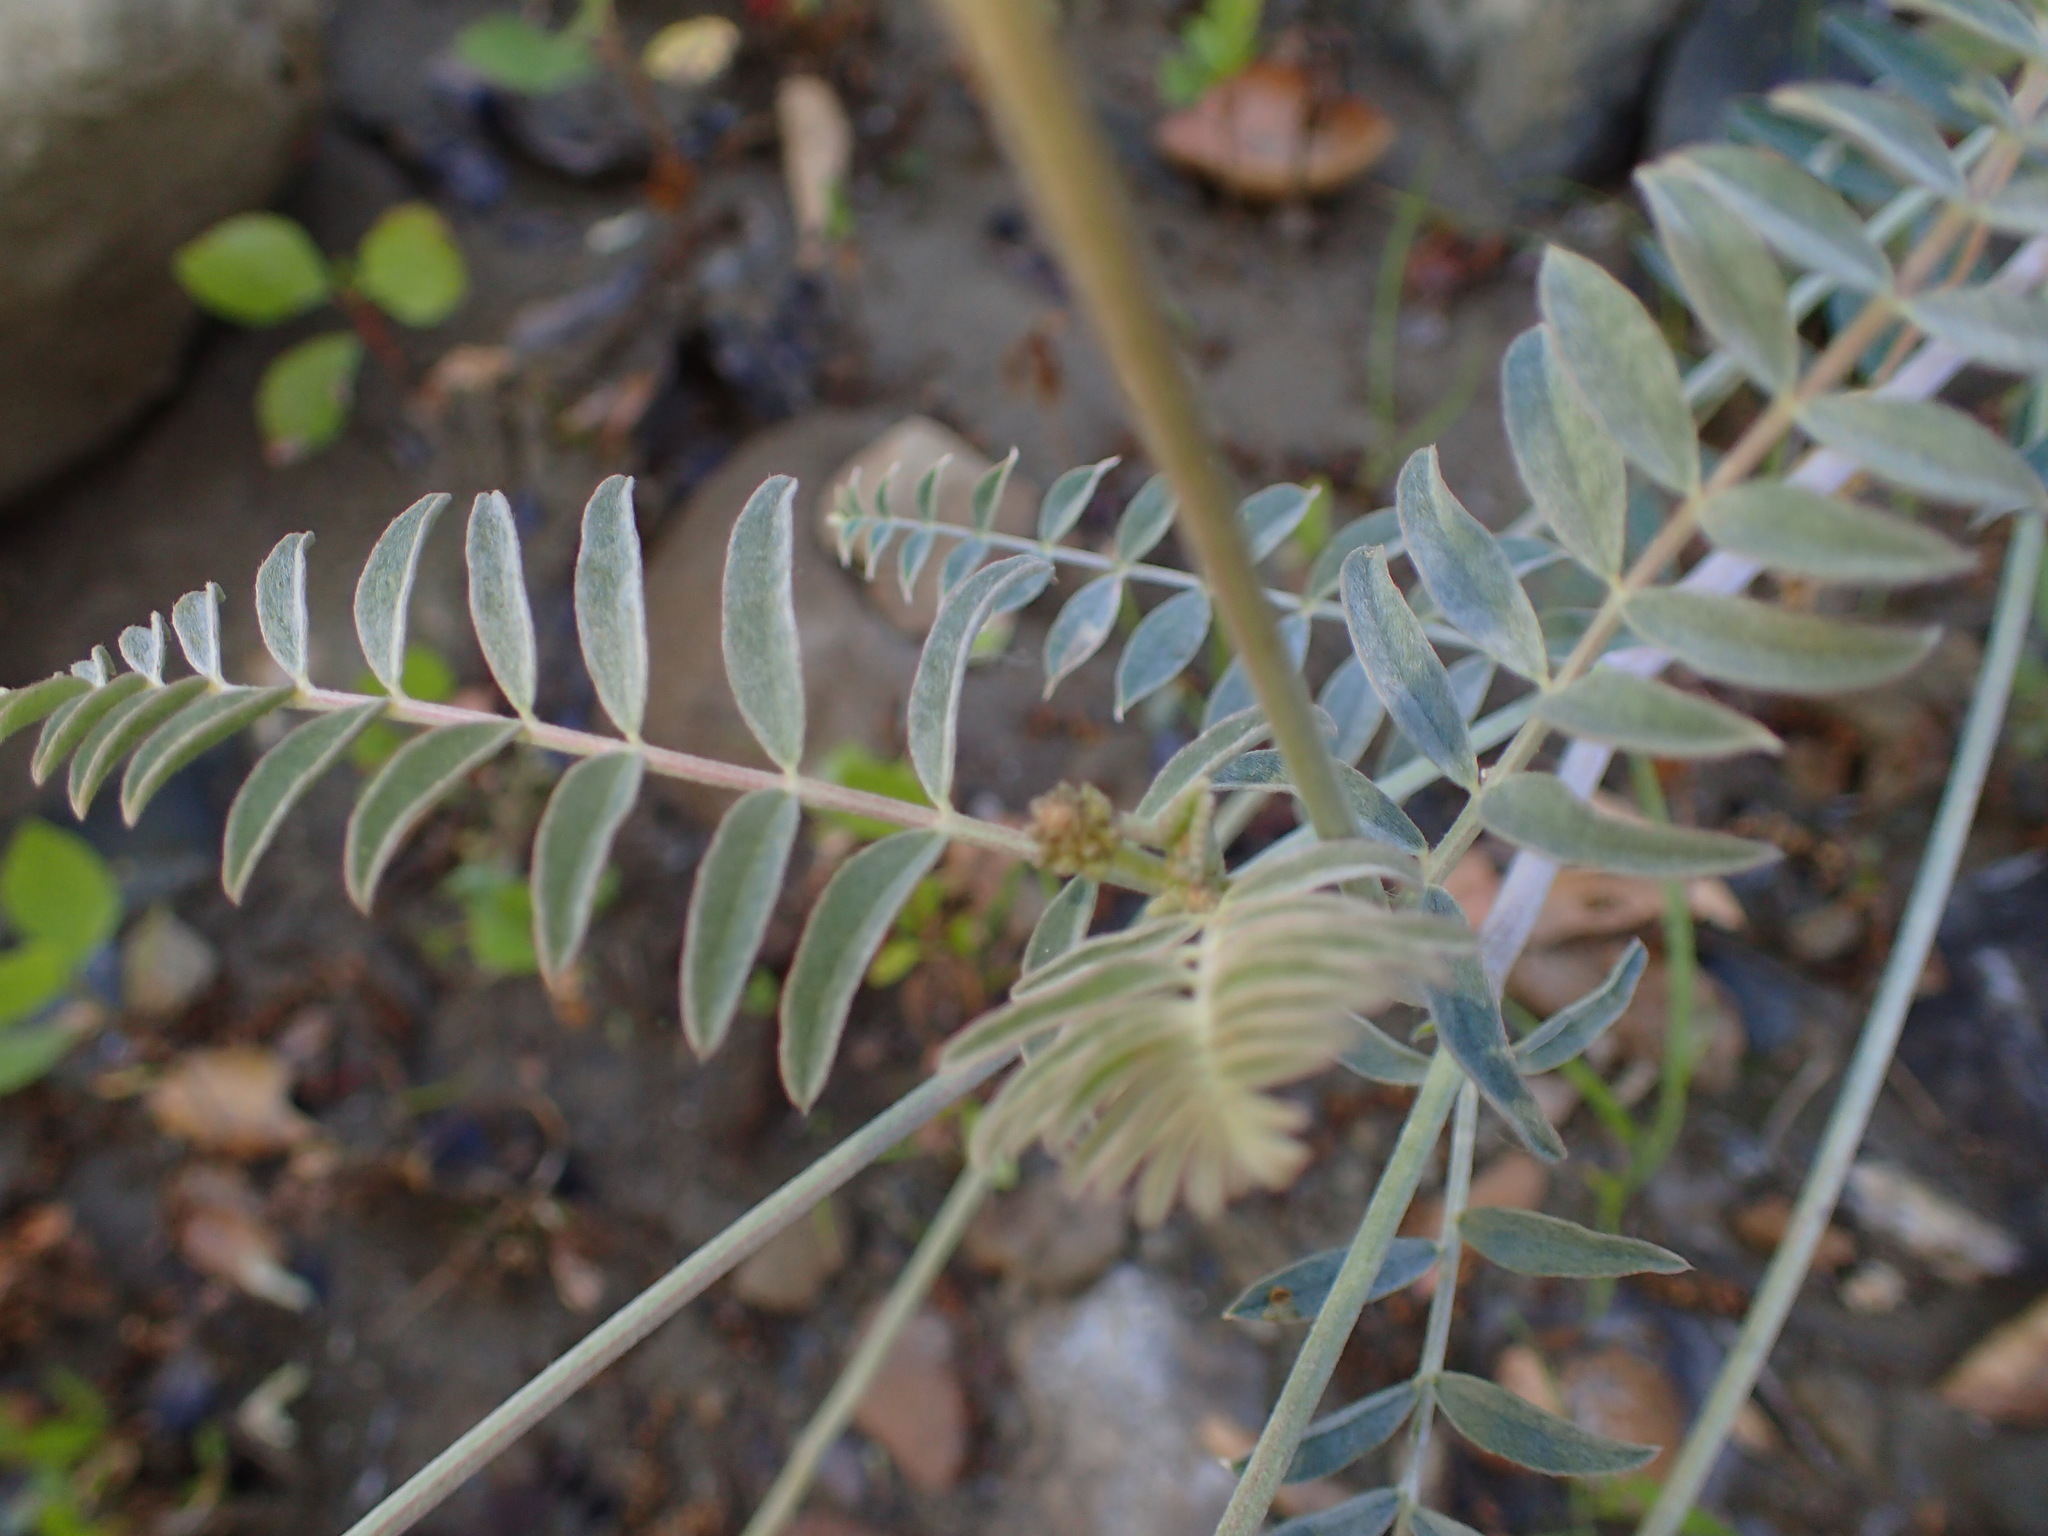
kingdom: Plantae
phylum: Tracheophyta
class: Magnoliopsida
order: Fabales
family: Fabaceae
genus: Astragalus
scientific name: Astragalus trichopodus
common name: Santa barbara milk-vetch
